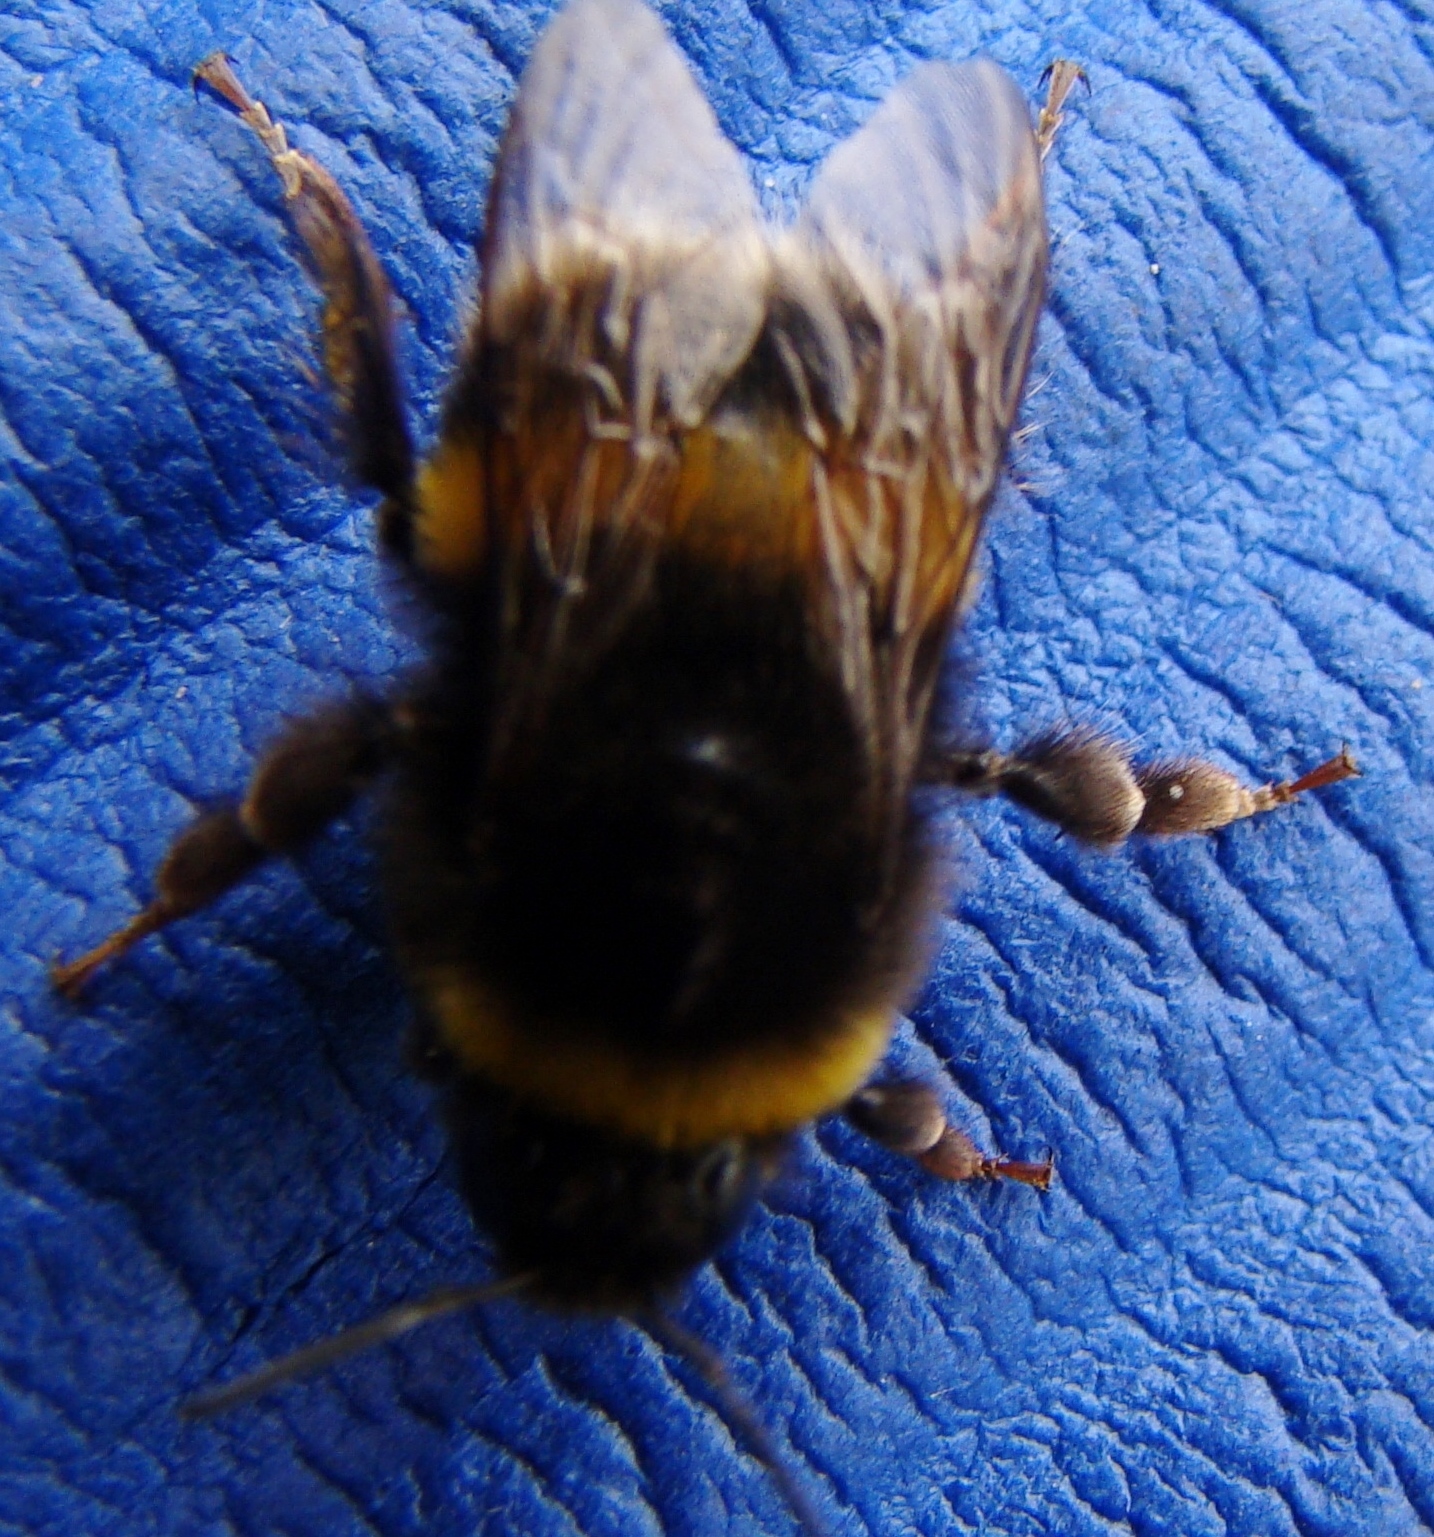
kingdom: Animalia
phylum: Arthropoda
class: Insecta
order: Hymenoptera
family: Apidae
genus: Bombus
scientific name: Bombus terrestris
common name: Buff-tailed bumblebee
